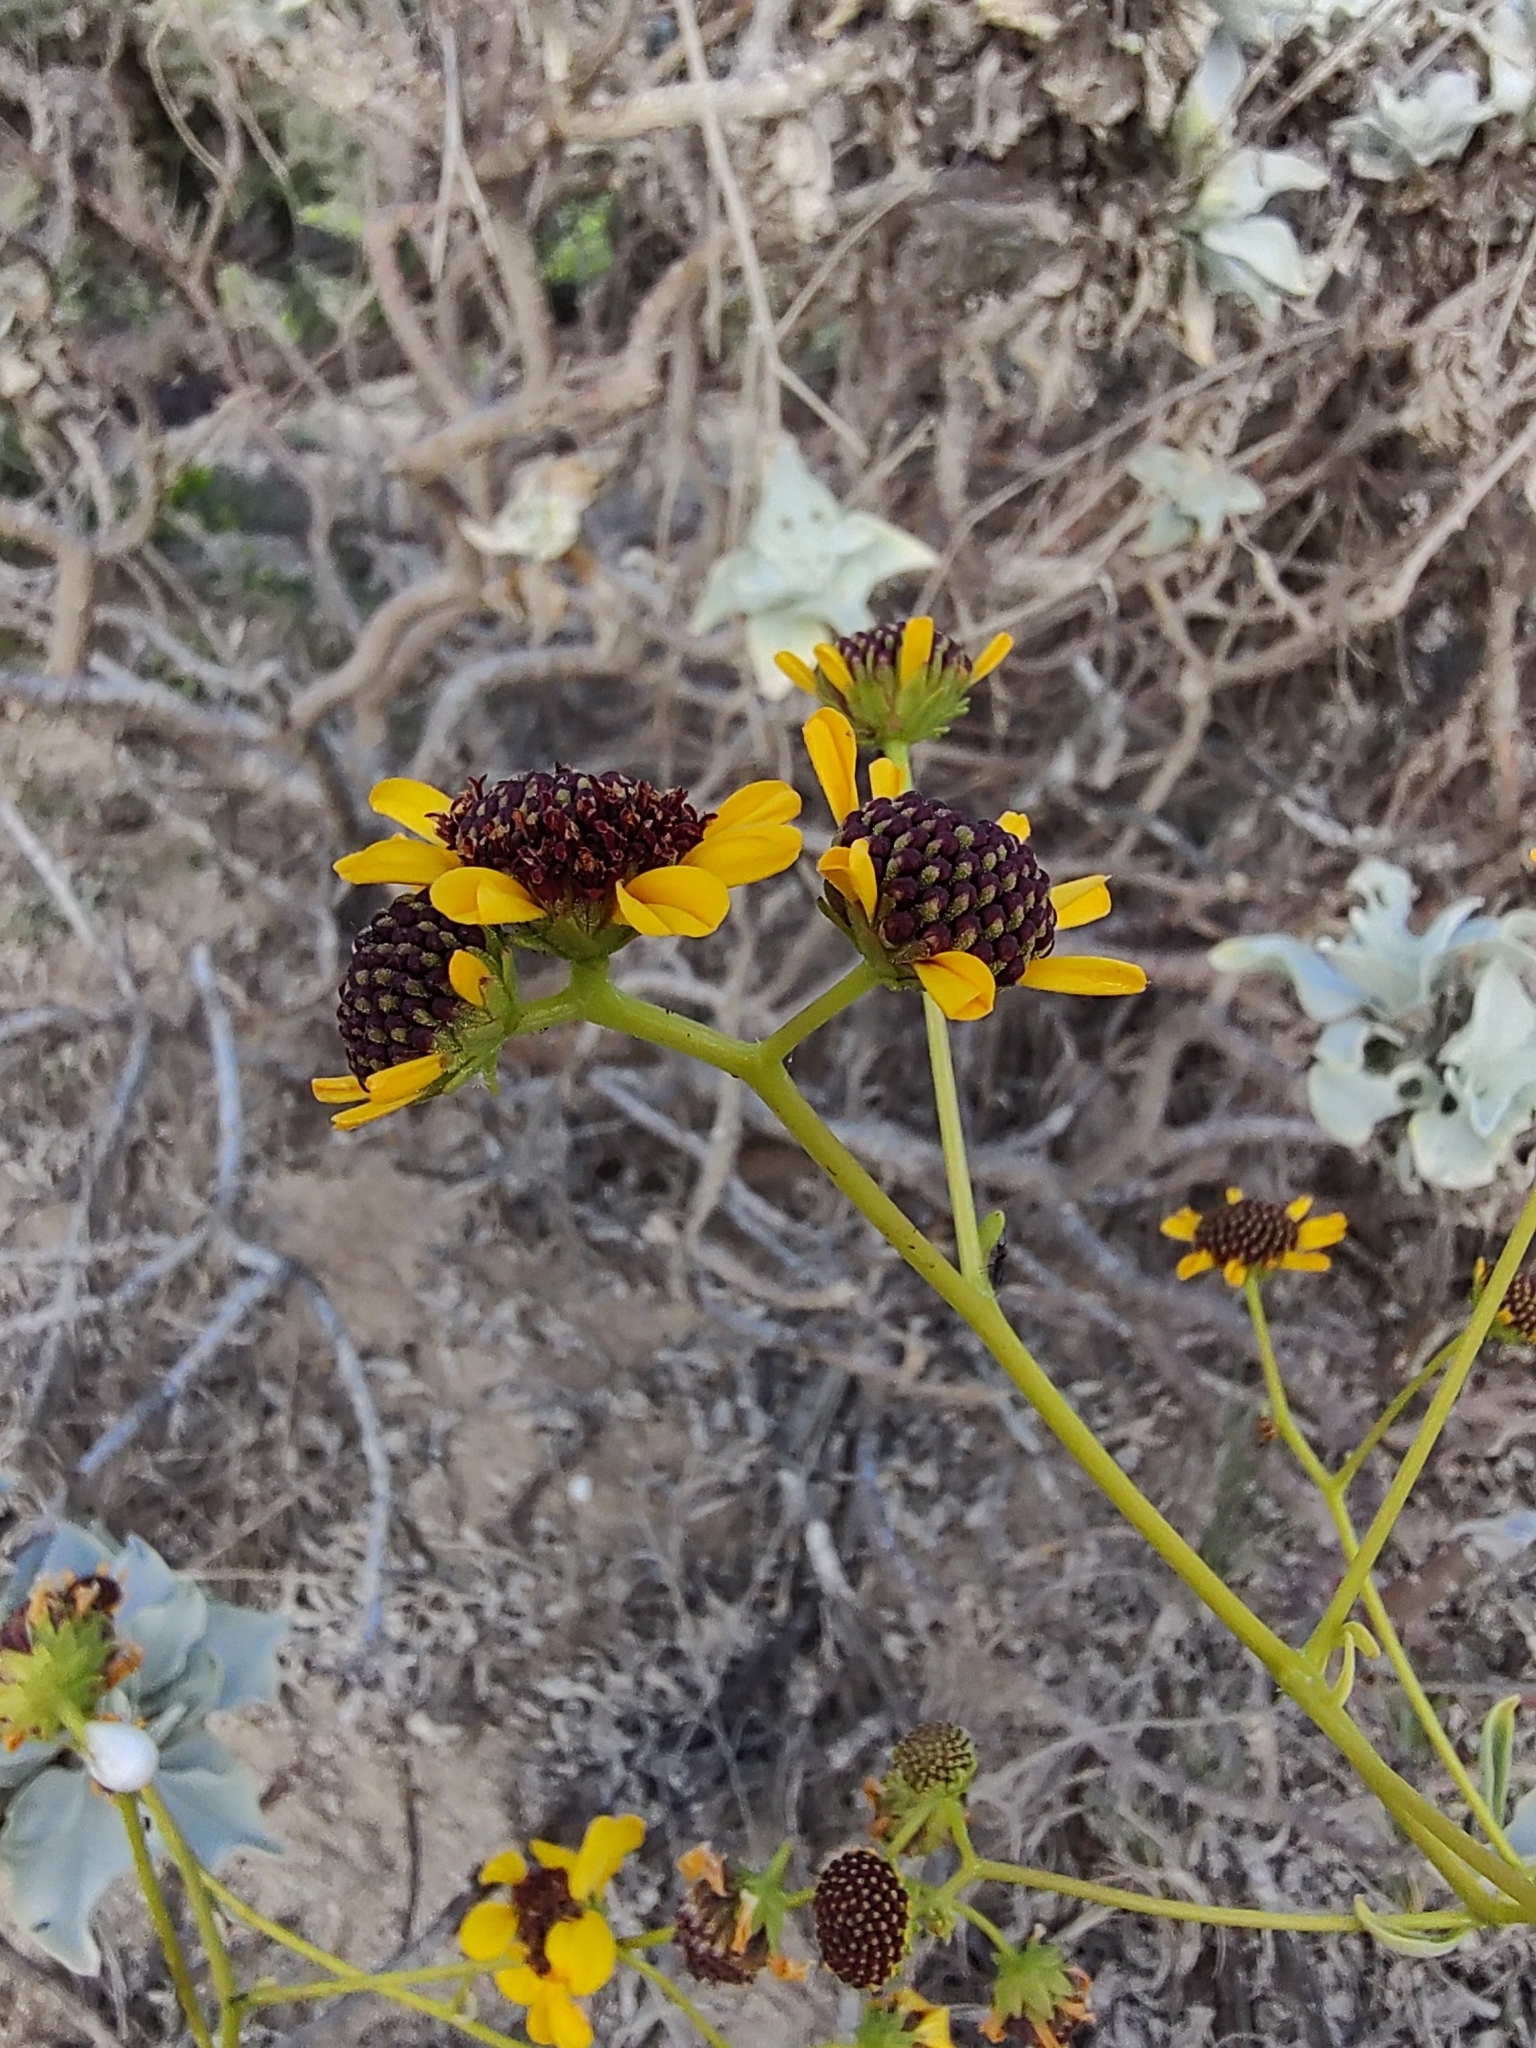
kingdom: Plantae
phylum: Tracheophyta
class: Magnoliopsida
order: Asterales
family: Asteraceae
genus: Encelia
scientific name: Encelia farinosa
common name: Brittlebush
